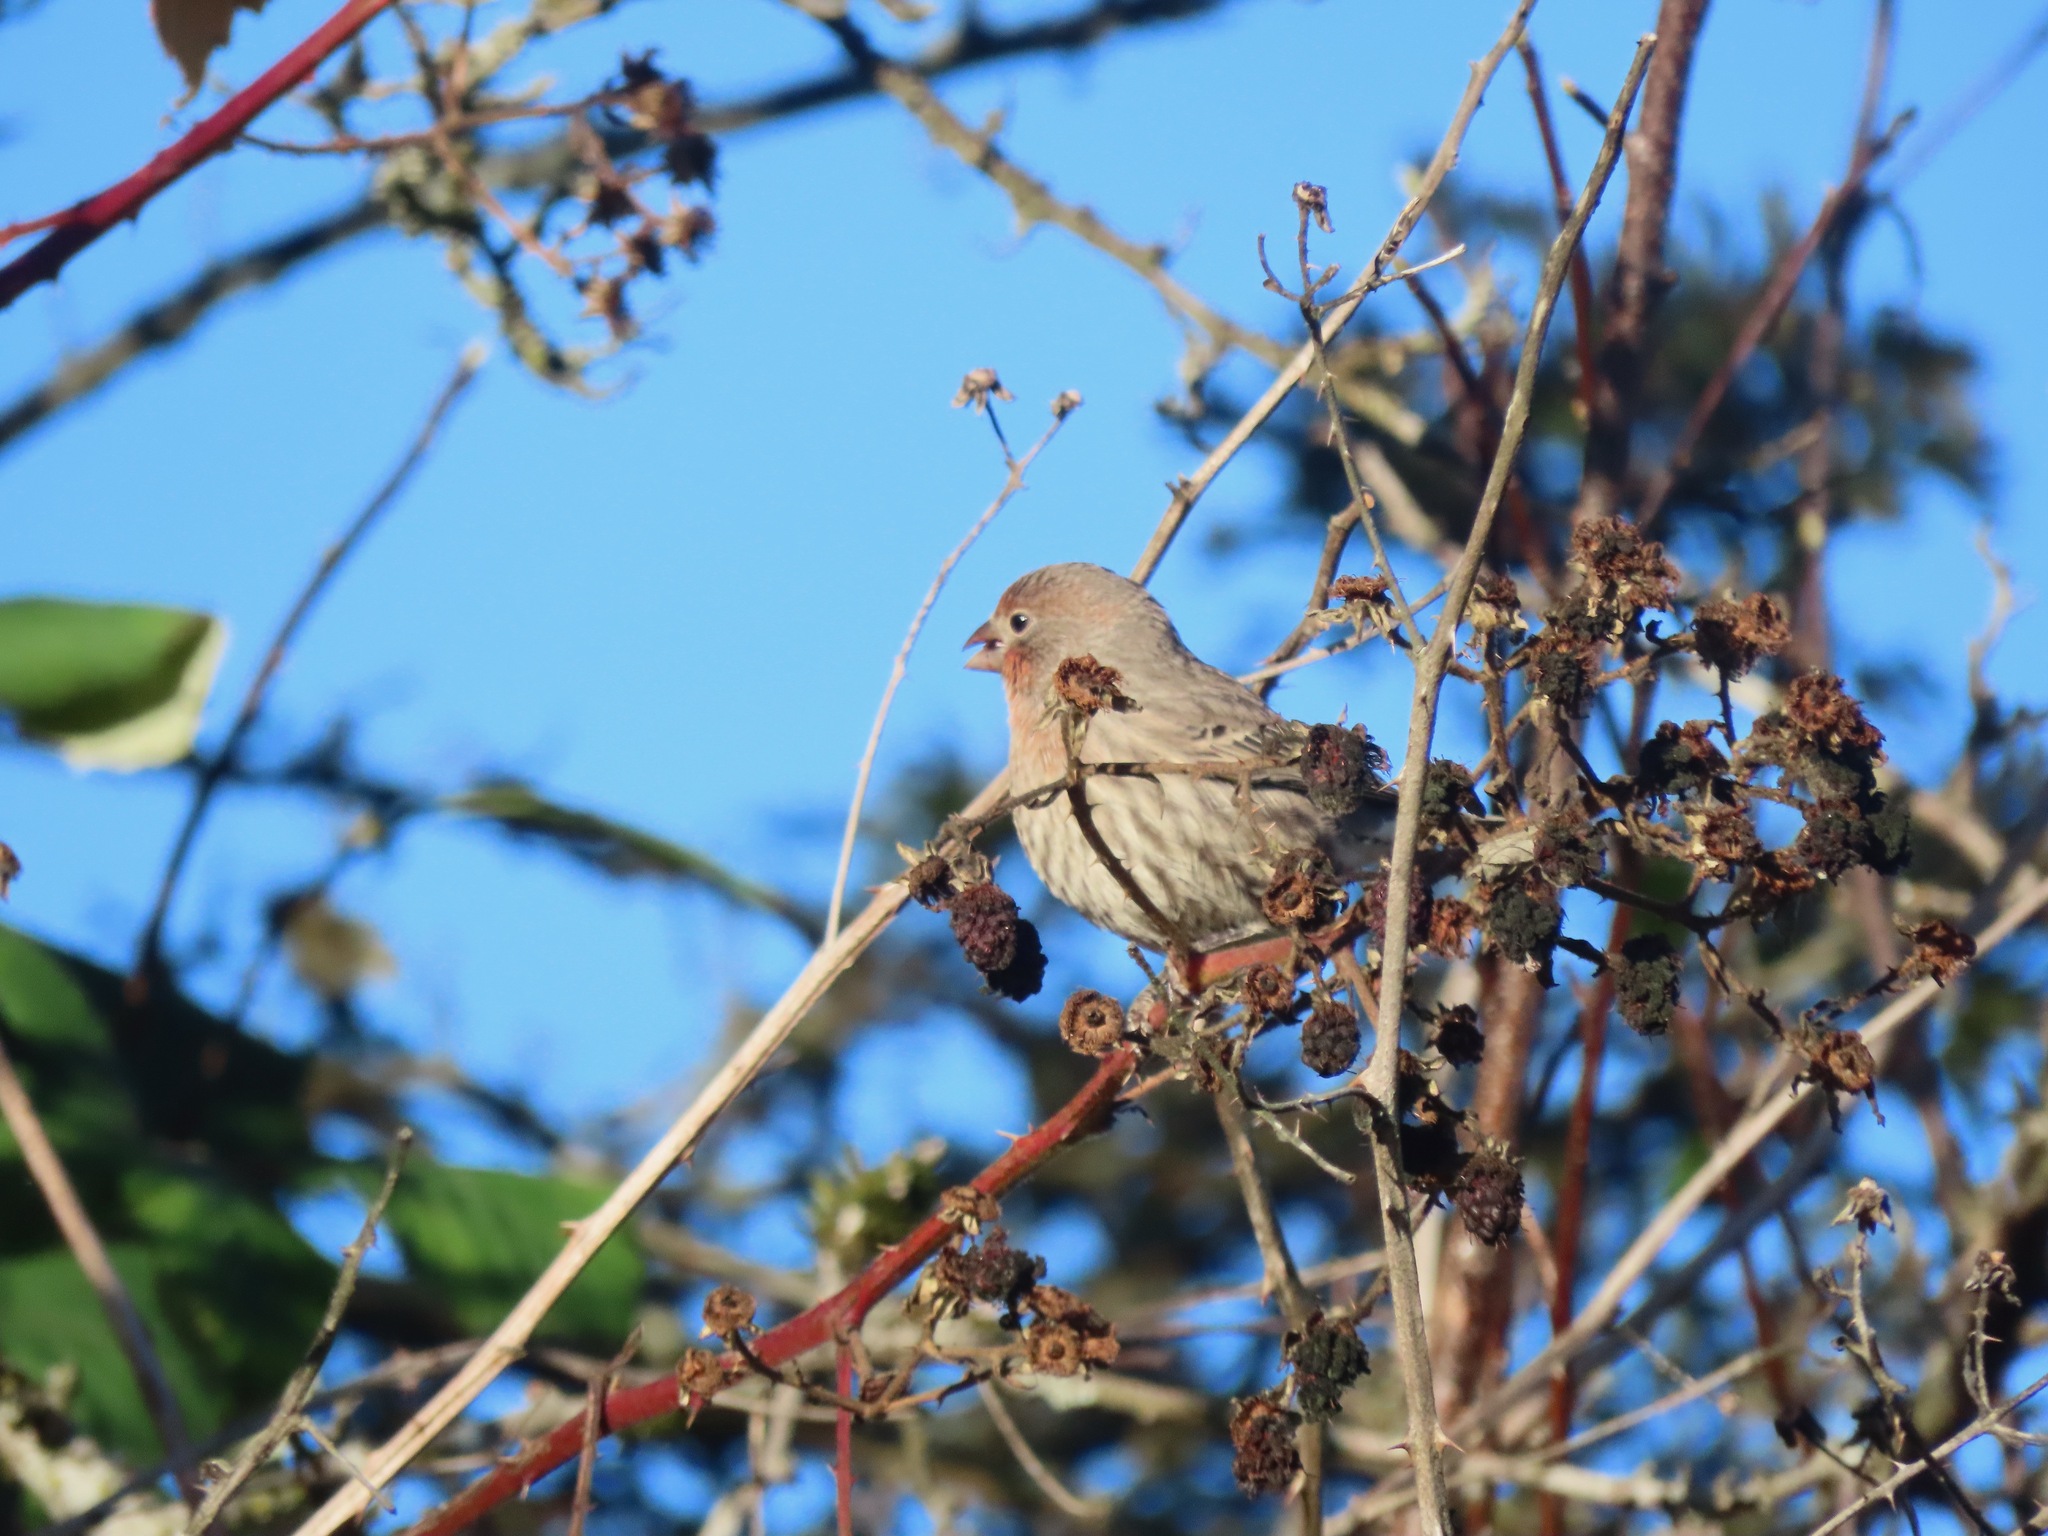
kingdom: Animalia
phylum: Chordata
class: Aves
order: Passeriformes
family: Fringillidae
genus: Haemorhous
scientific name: Haemorhous mexicanus
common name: House finch
